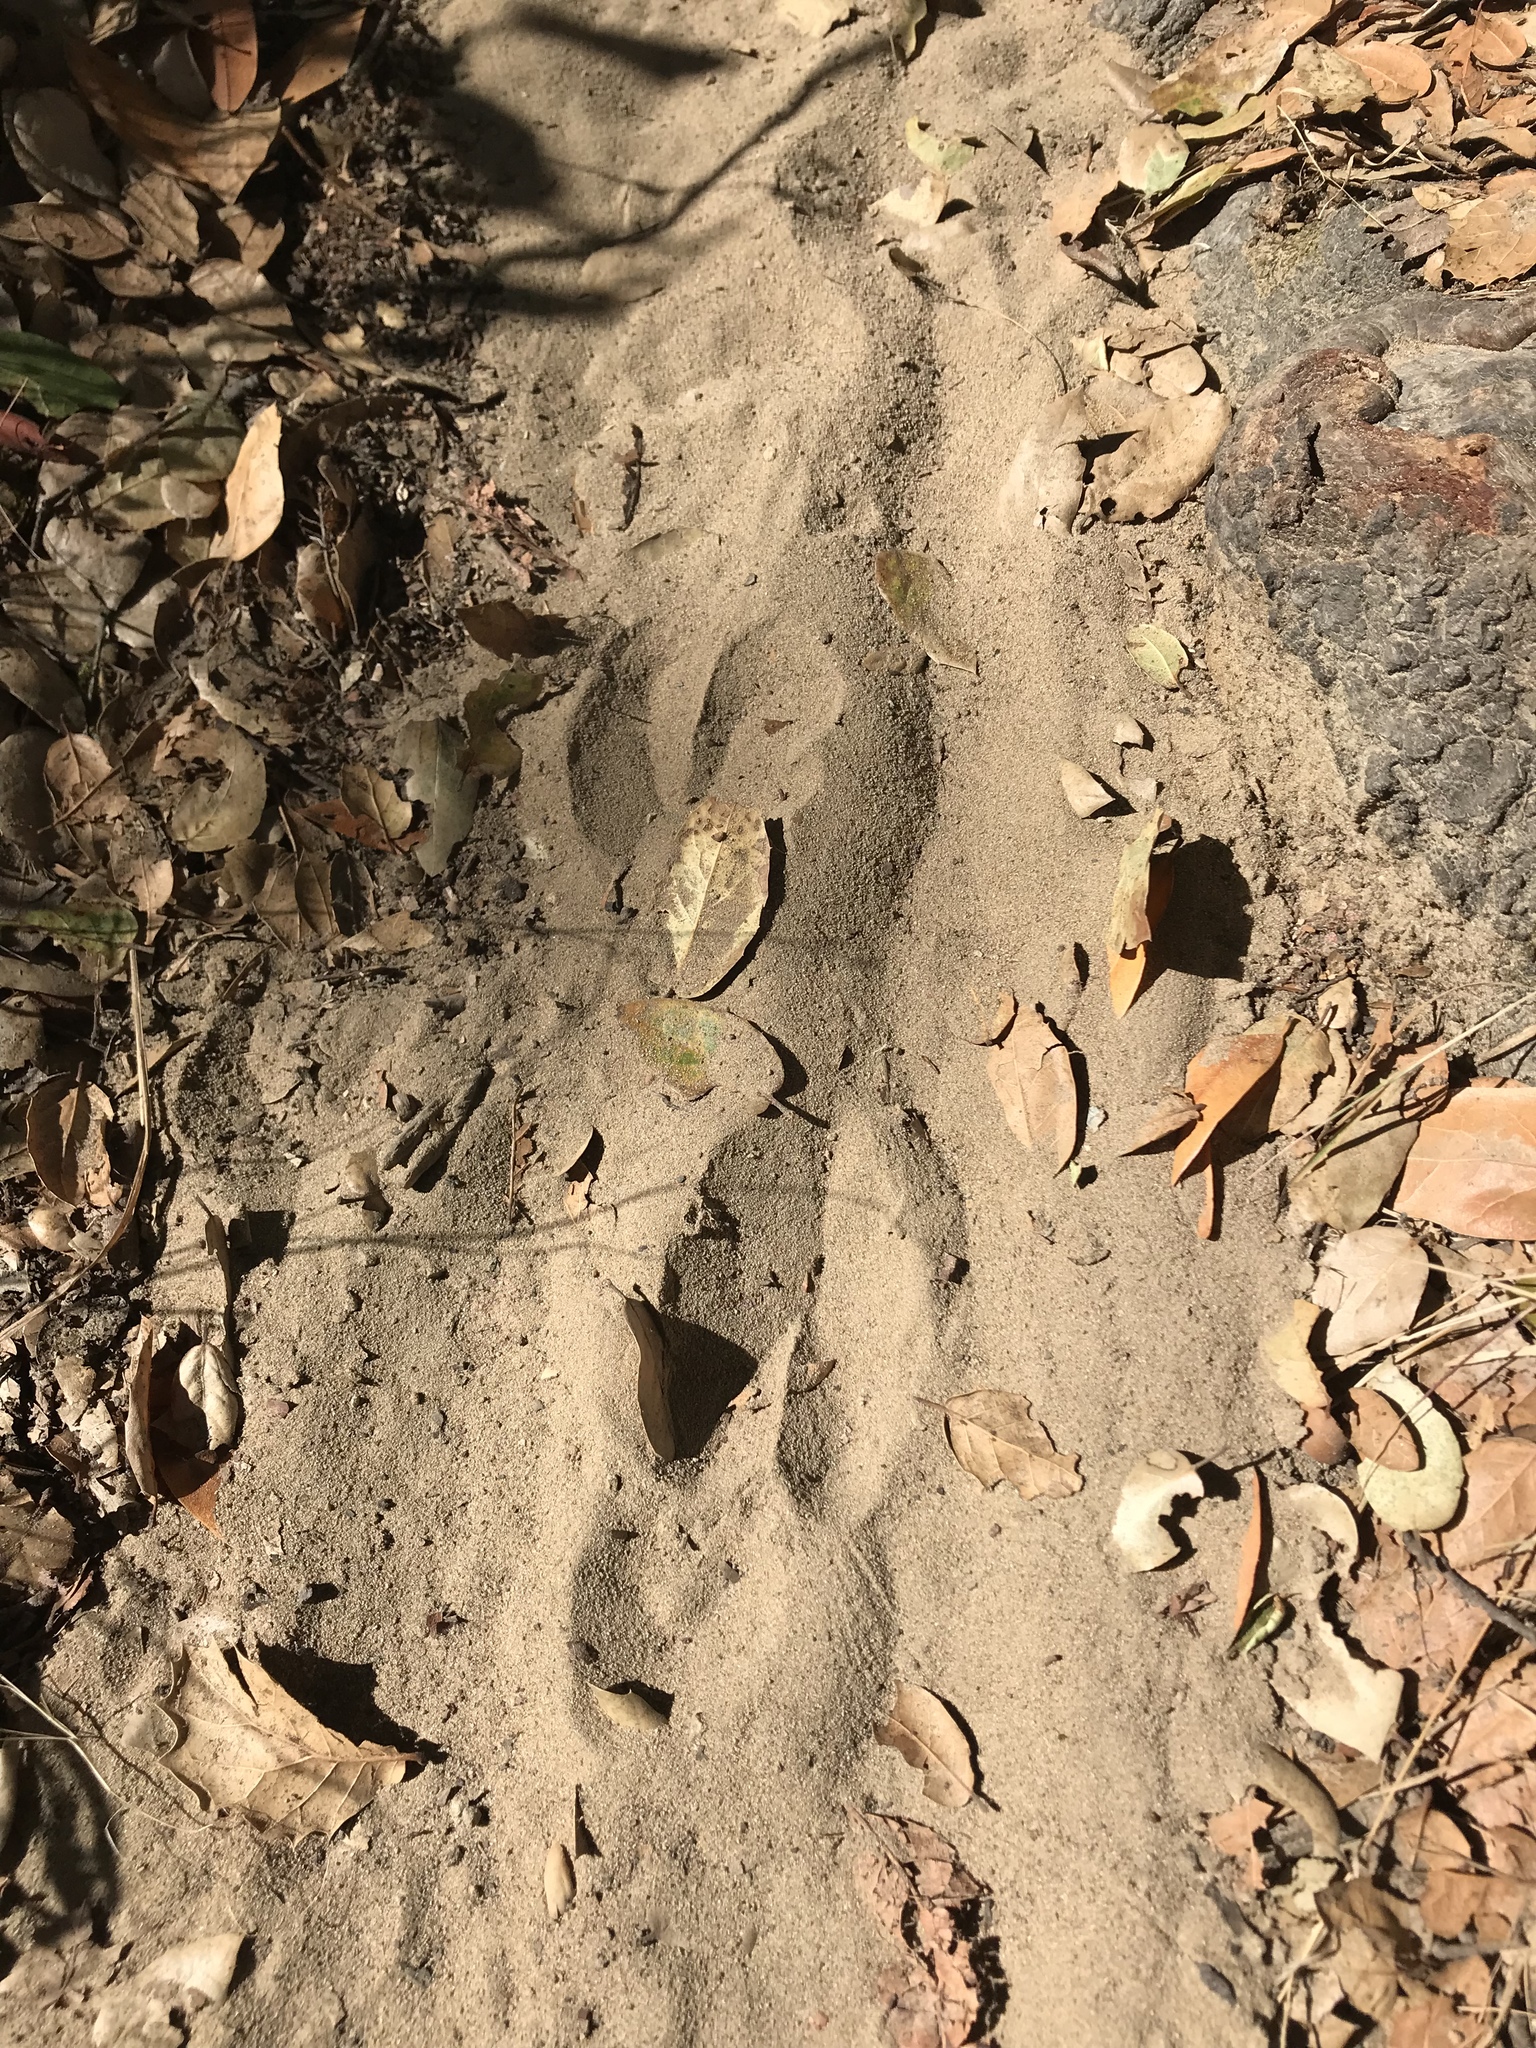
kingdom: Animalia
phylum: Chordata
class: Mammalia
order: Artiodactyla
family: Cervidae
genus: Odocoileus
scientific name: Odocoileus hemionus
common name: Mule deer
